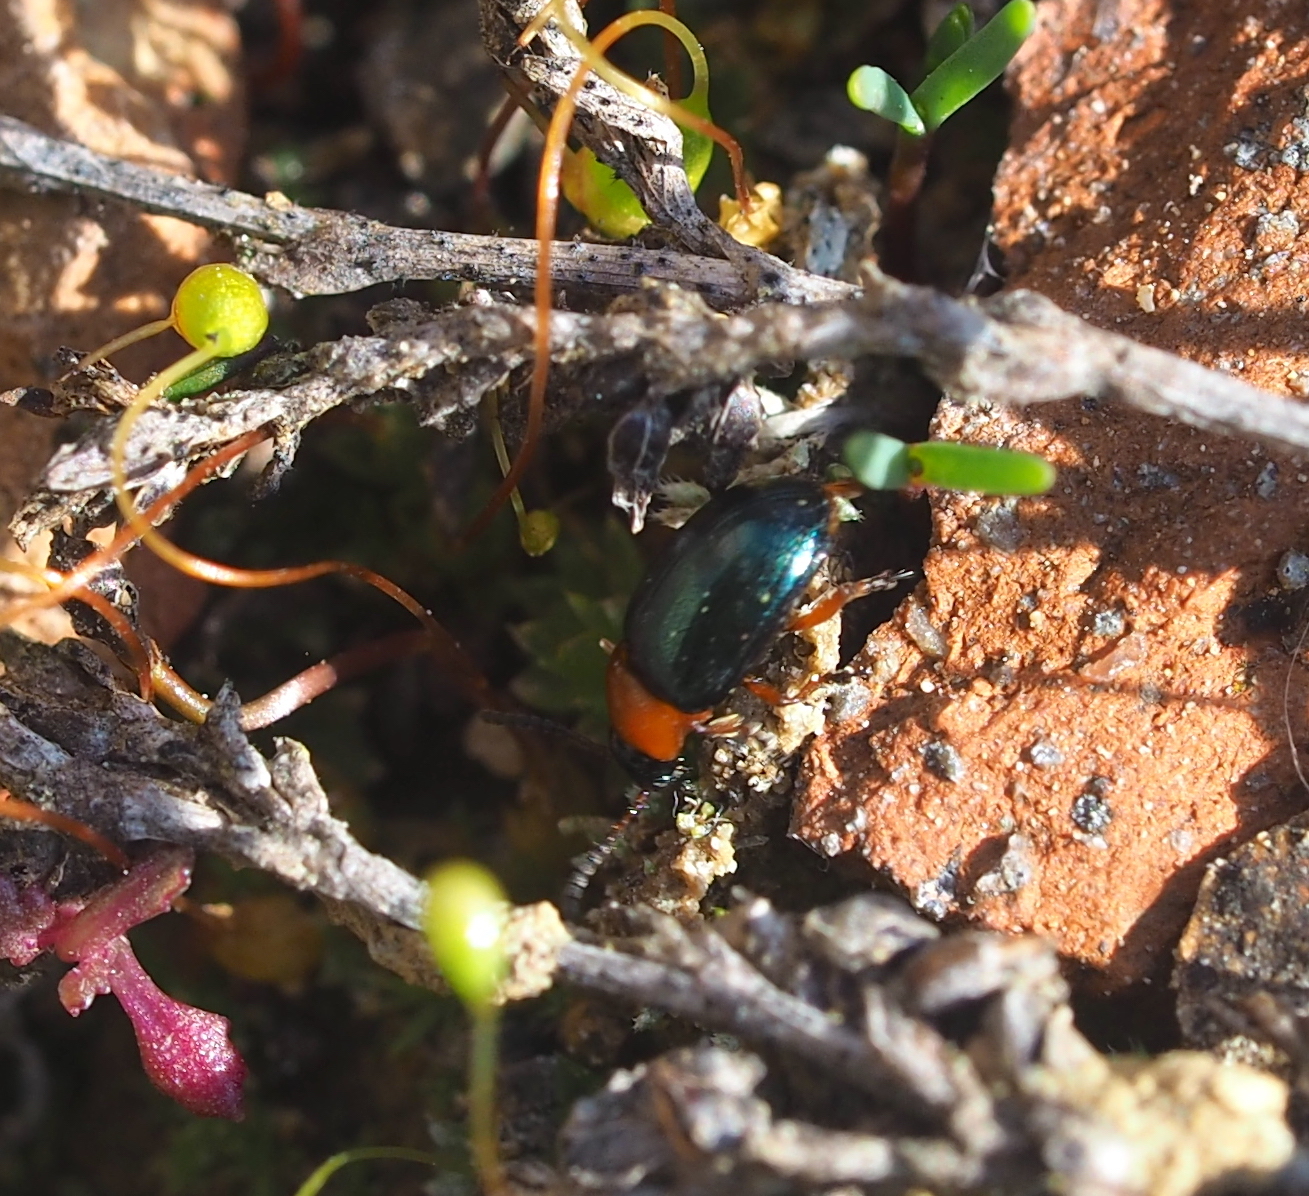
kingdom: Animalia
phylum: Arthropoda
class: Insecta
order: Coleoptera
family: Chrysomelidae
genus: Gastrophysa
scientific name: Gastrophysa polygoni
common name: Knotweed leaf beetle
